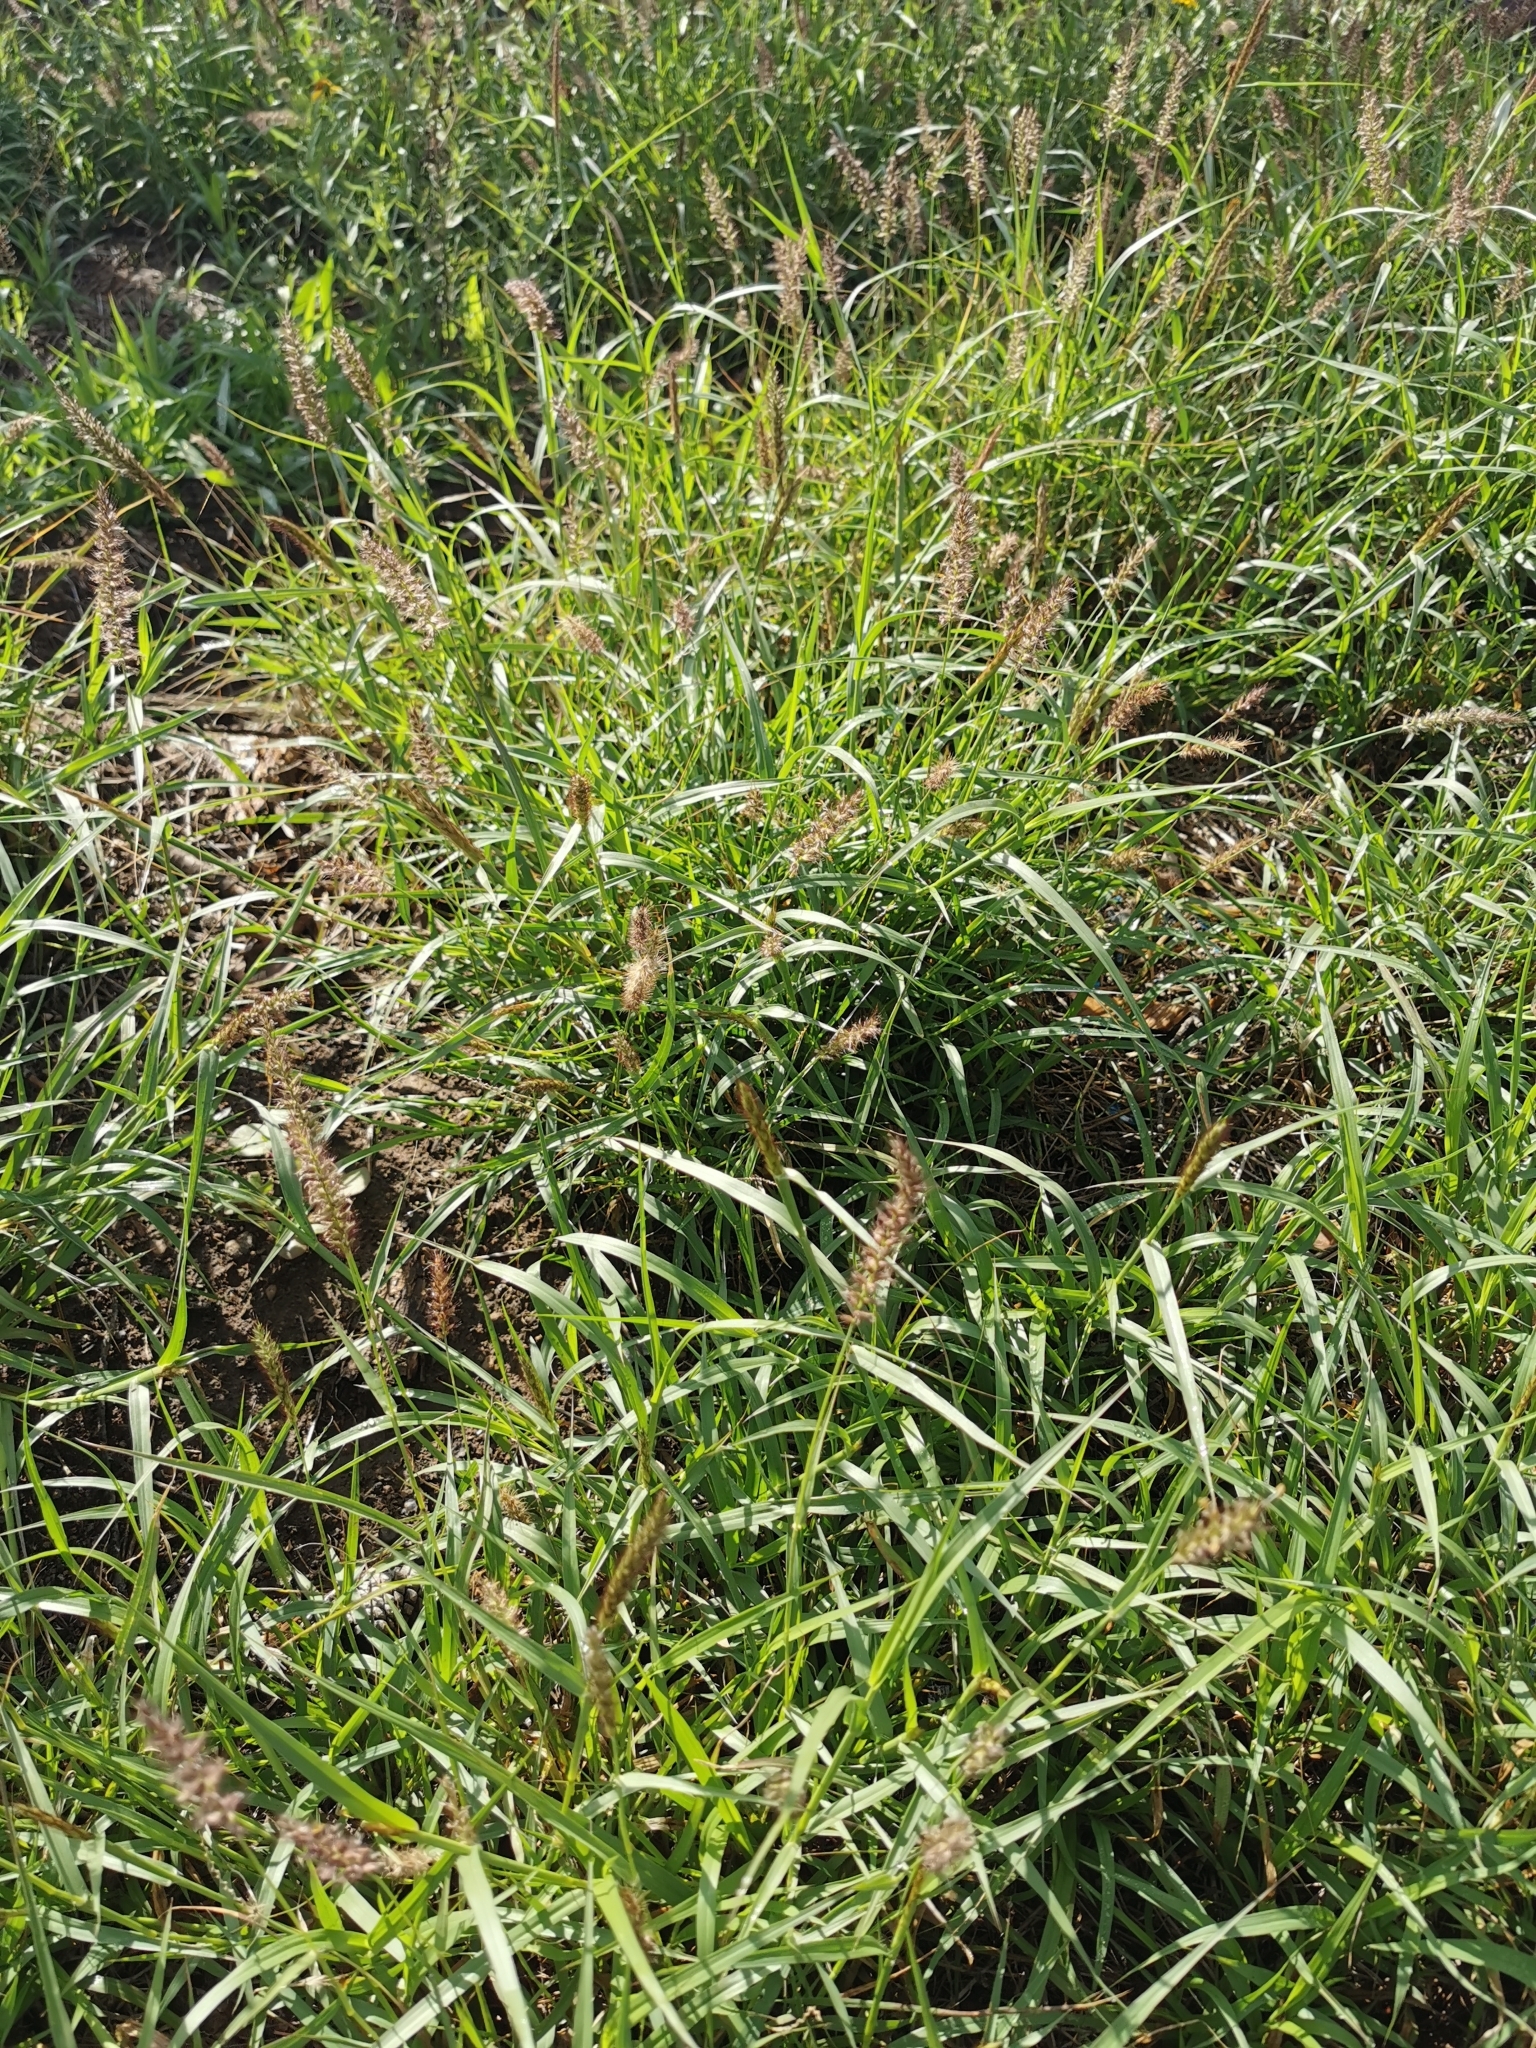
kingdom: Plantae
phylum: Tracheophyta
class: Liliopsida
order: Poales
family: Poaceae
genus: Cenchrus
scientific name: Cenchrus ciliaris
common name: Buffelgrass
